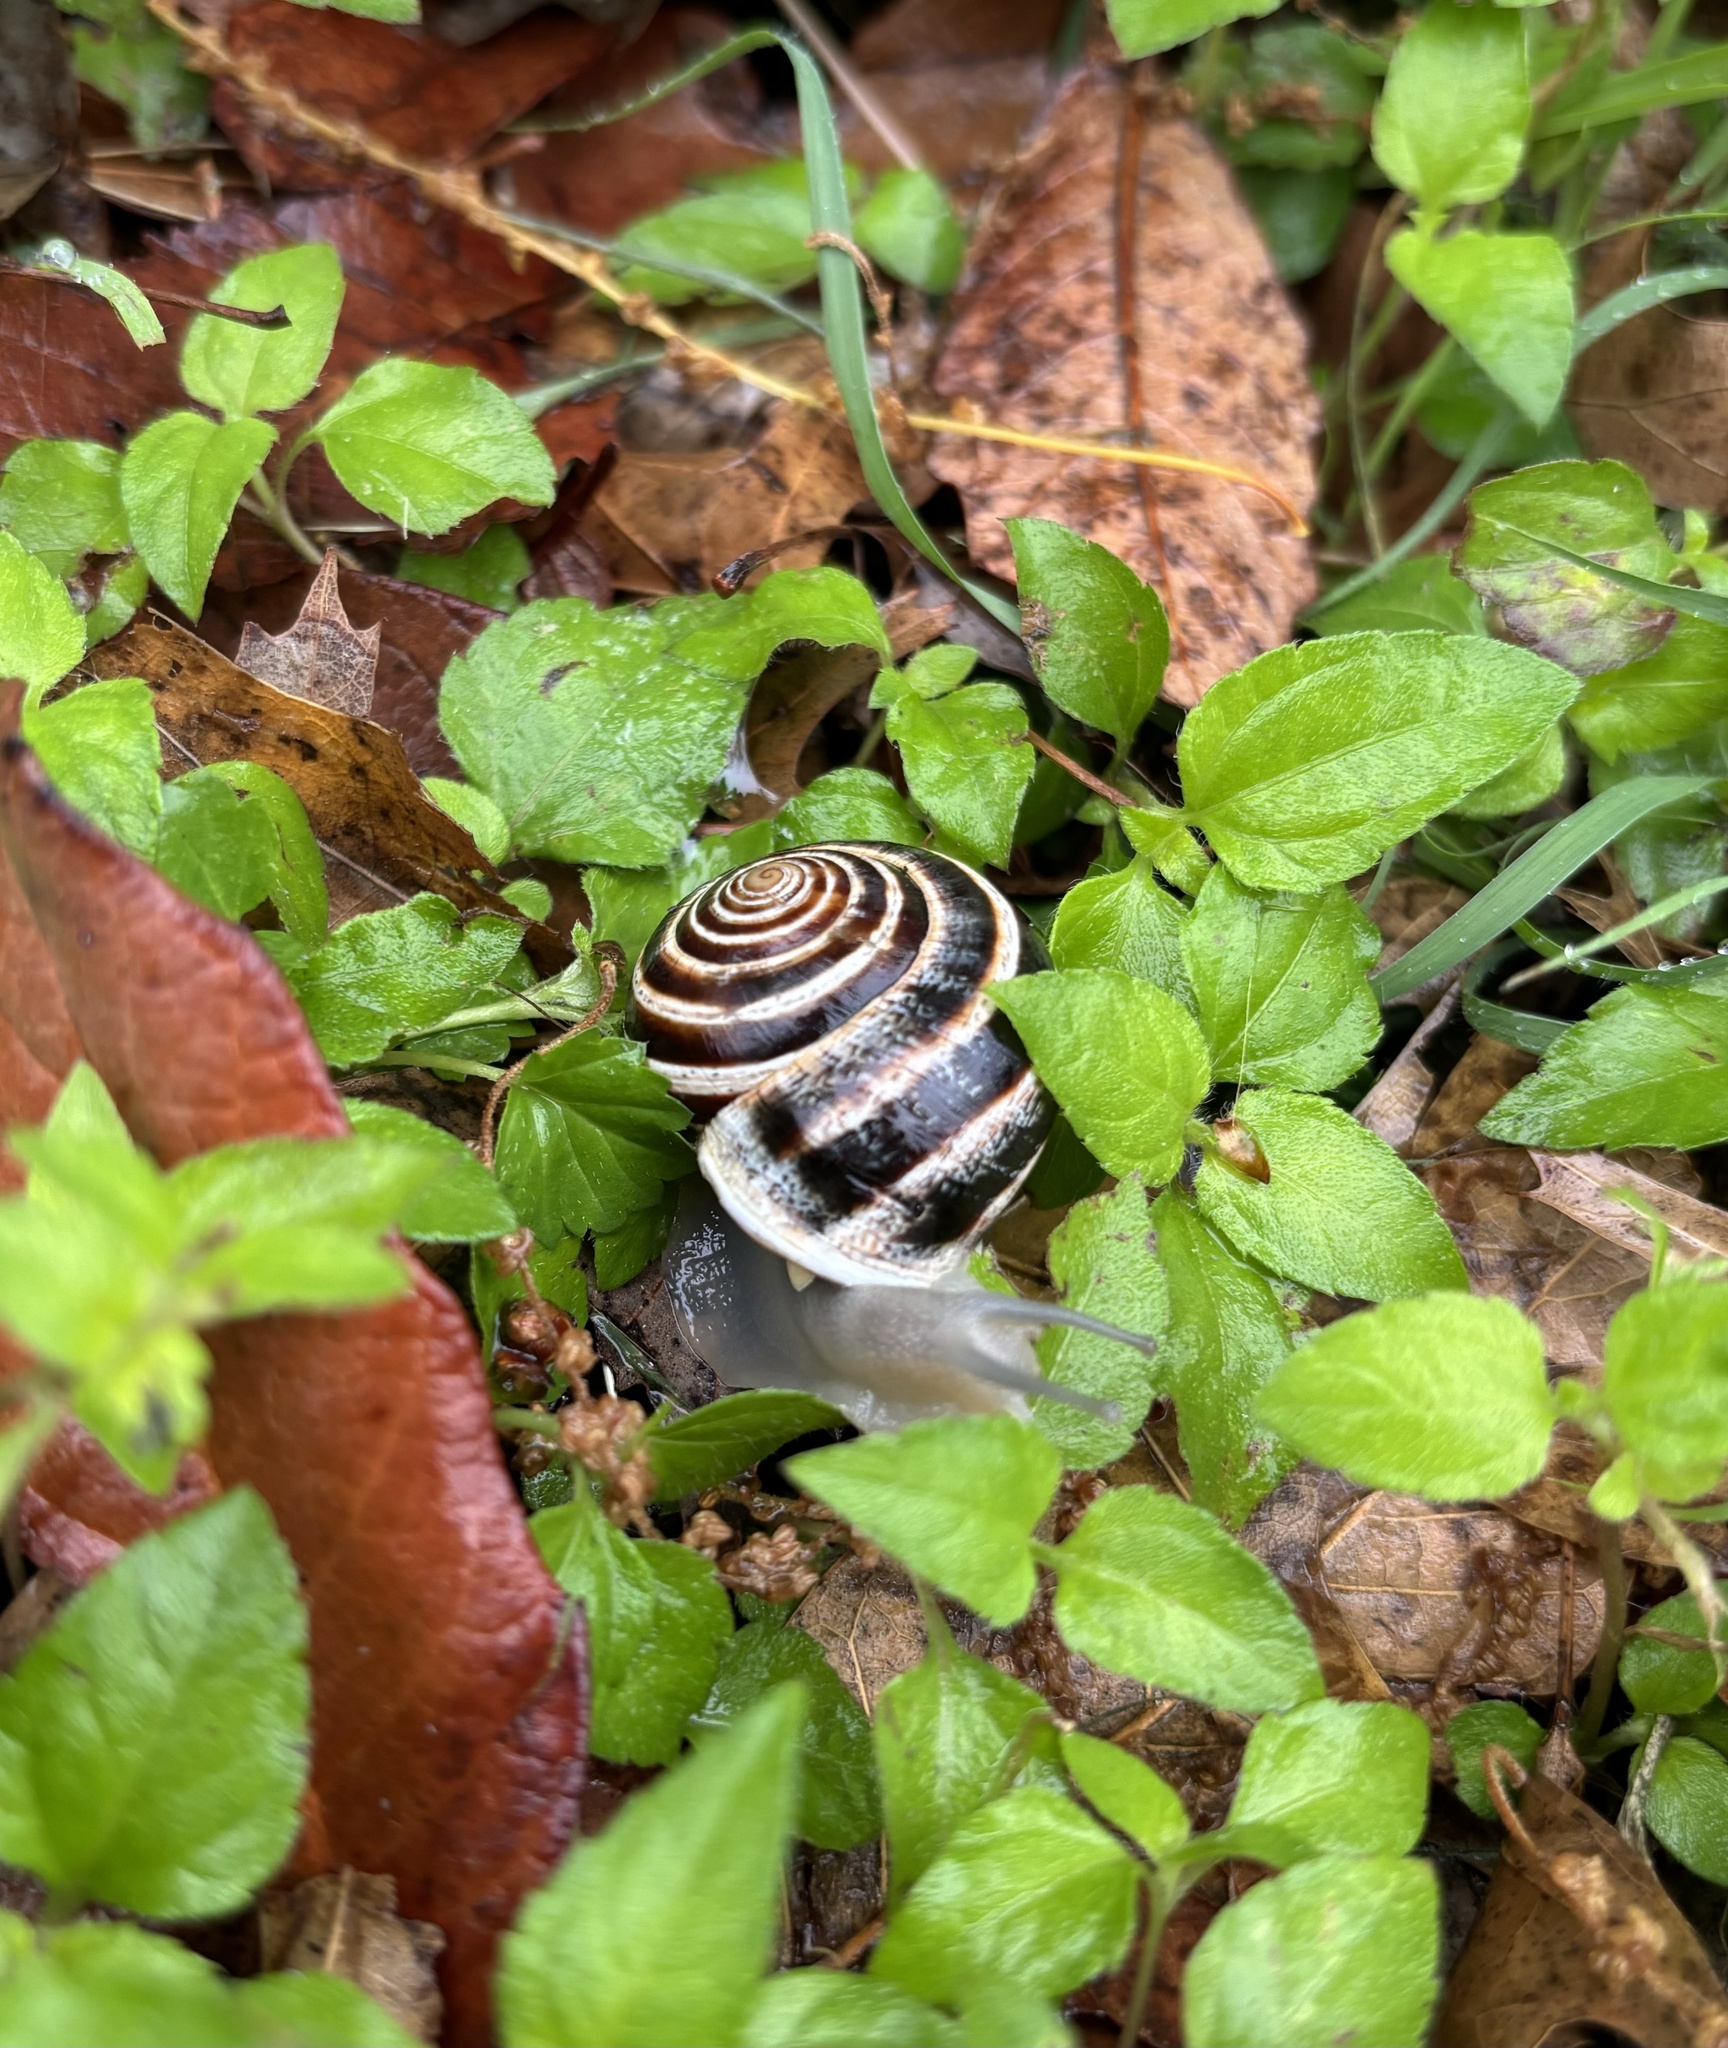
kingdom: Animalia
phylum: Mollusca
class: Gastropoda
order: Stylommatophora
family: Helicidae
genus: Otala
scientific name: Otala lactea
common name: Milk snail
